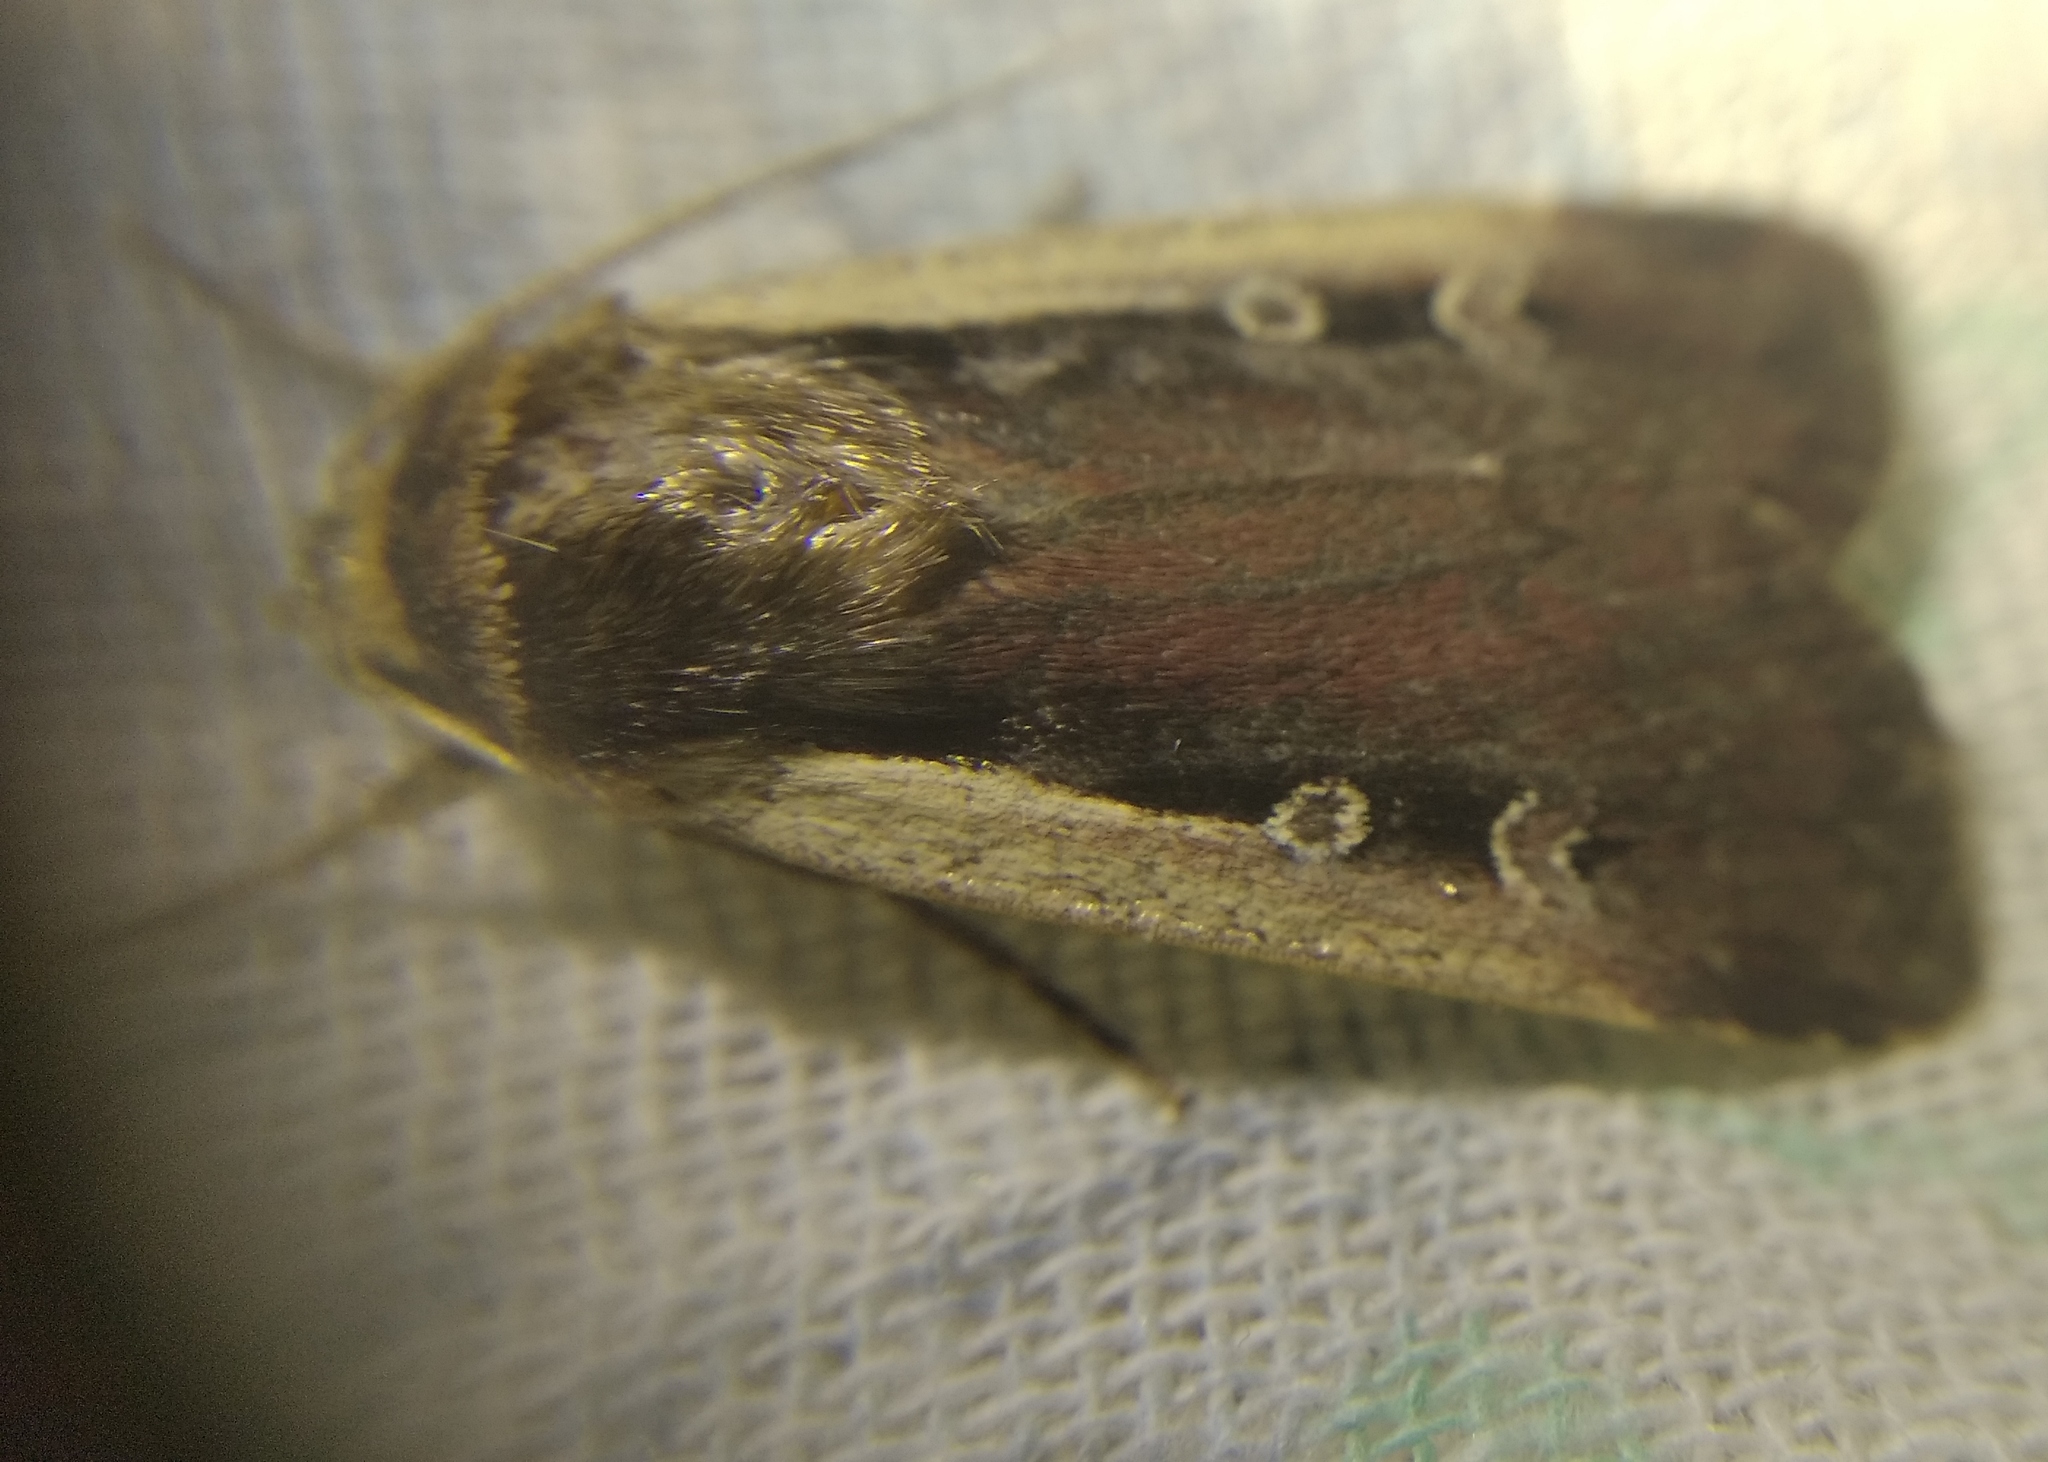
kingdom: Animalia
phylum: Arthropoda
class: Insecta
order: Lepidoptera
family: Noctuidae
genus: Ochropleura
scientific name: Ochropleura plecta
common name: Flame shoulder
